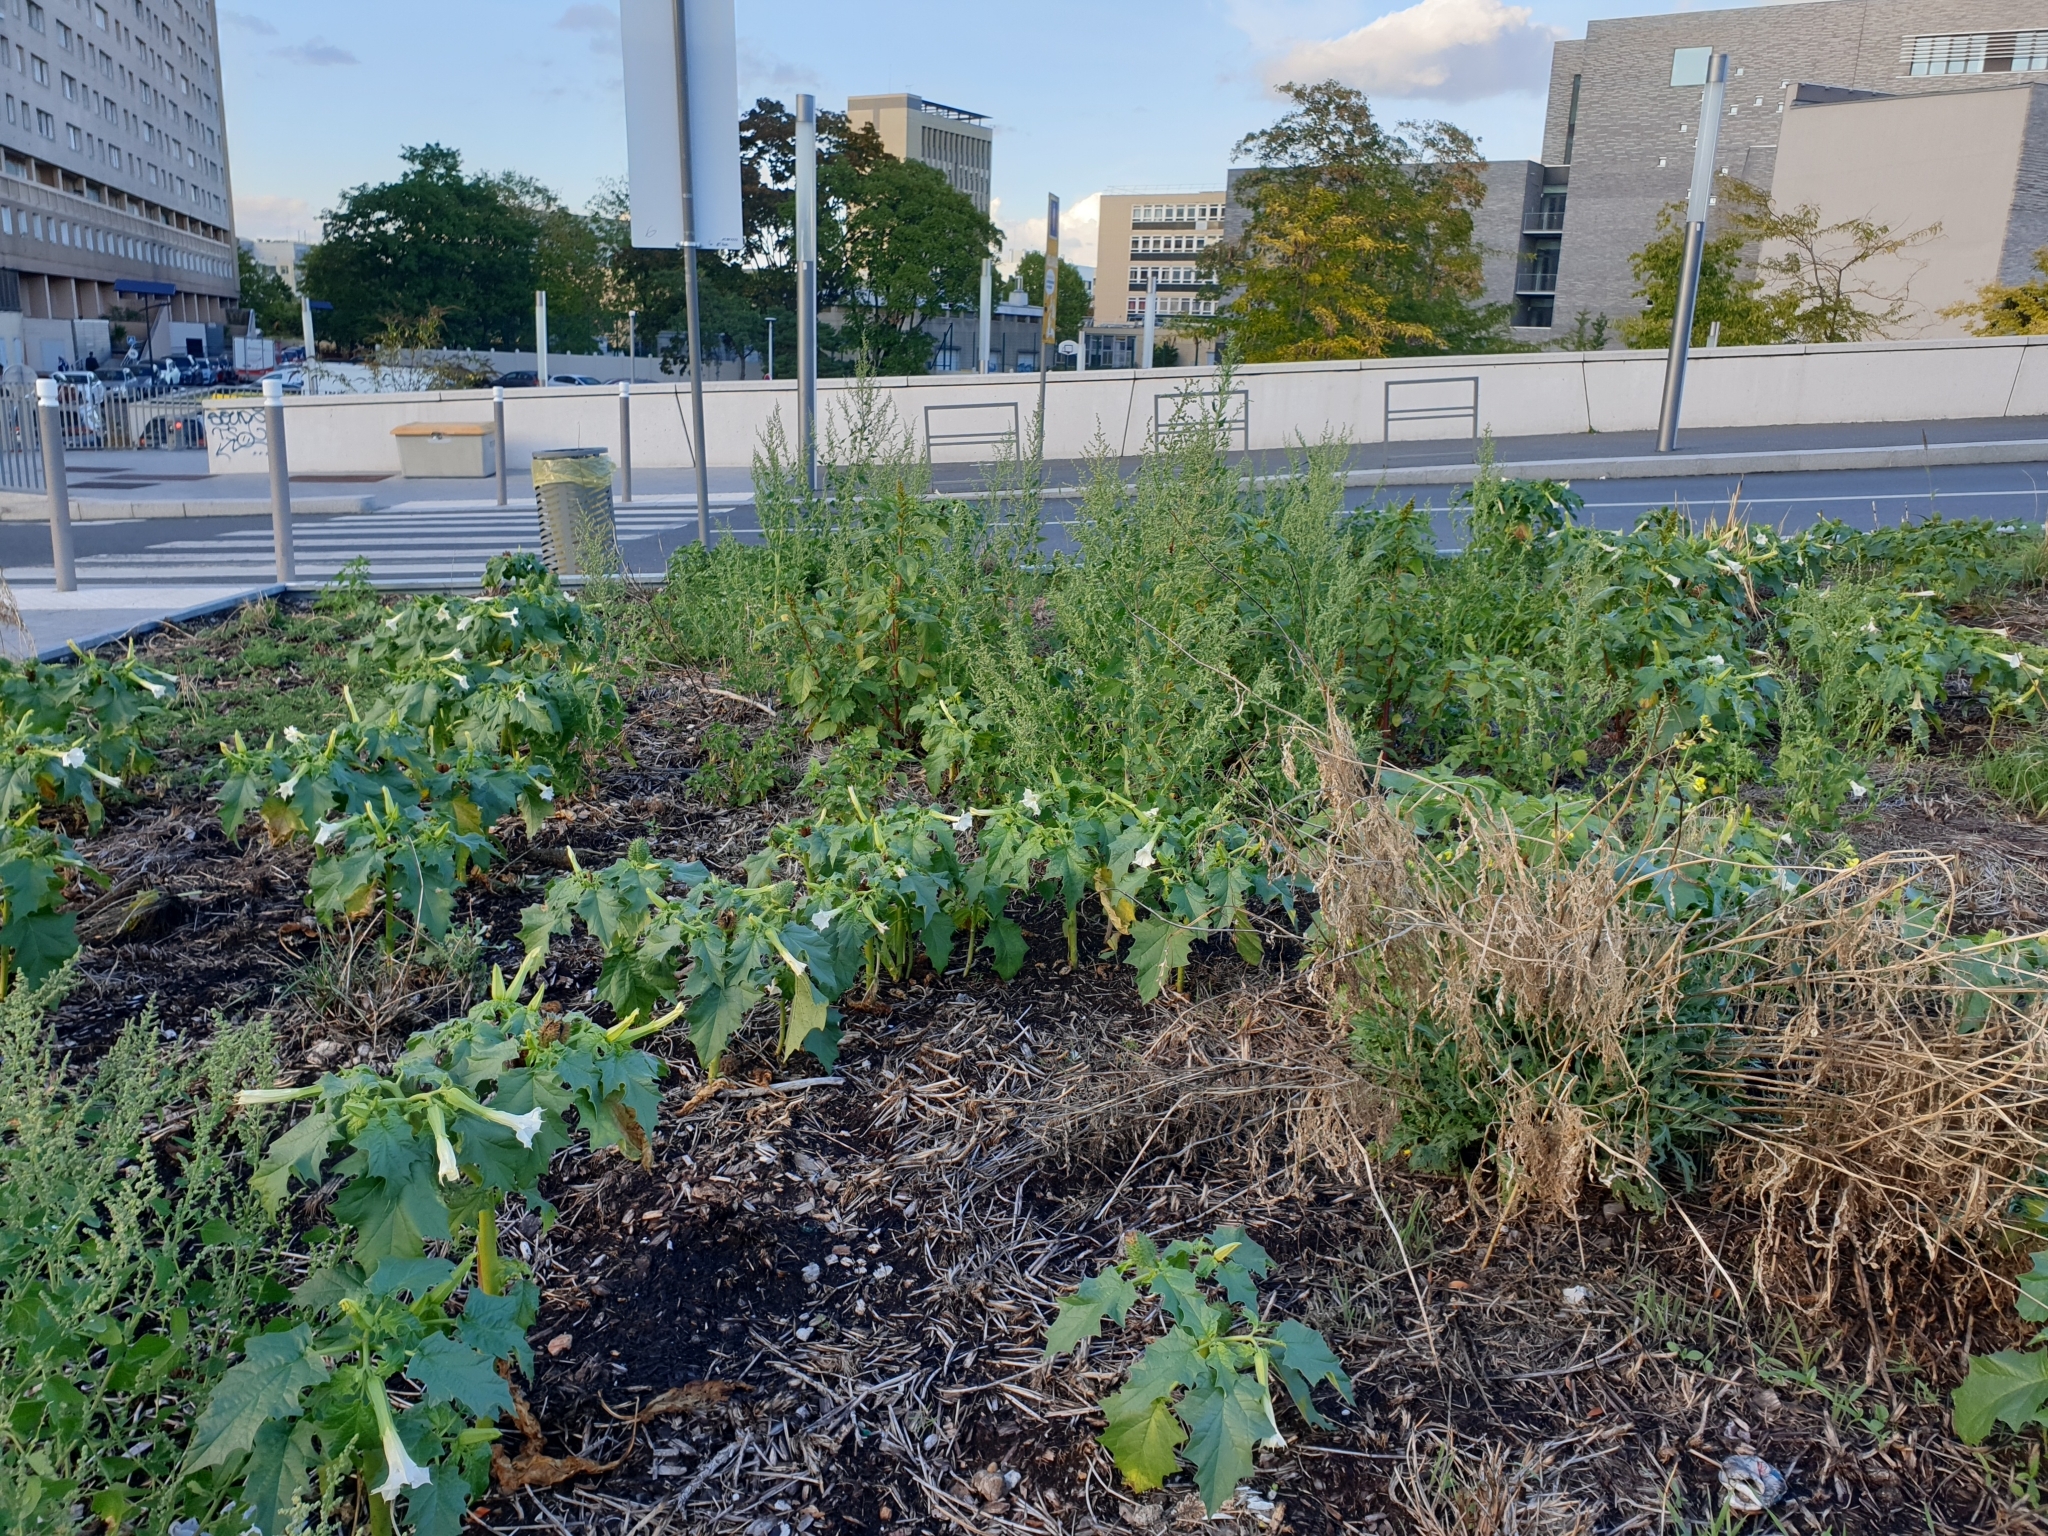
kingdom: Plantae
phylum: Tracheophyta
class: Magnoliopsida
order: Solanales
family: Solanaceae
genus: Datura
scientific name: Datura stramonium
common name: Thorn-apple
